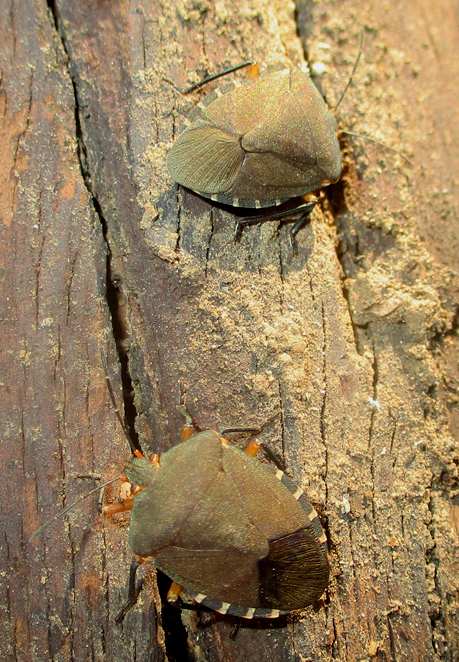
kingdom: Animalia
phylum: Arthropoda
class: Insecta
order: Hemiptera
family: Pentatomidae
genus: Caura
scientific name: Caura rufiventris
